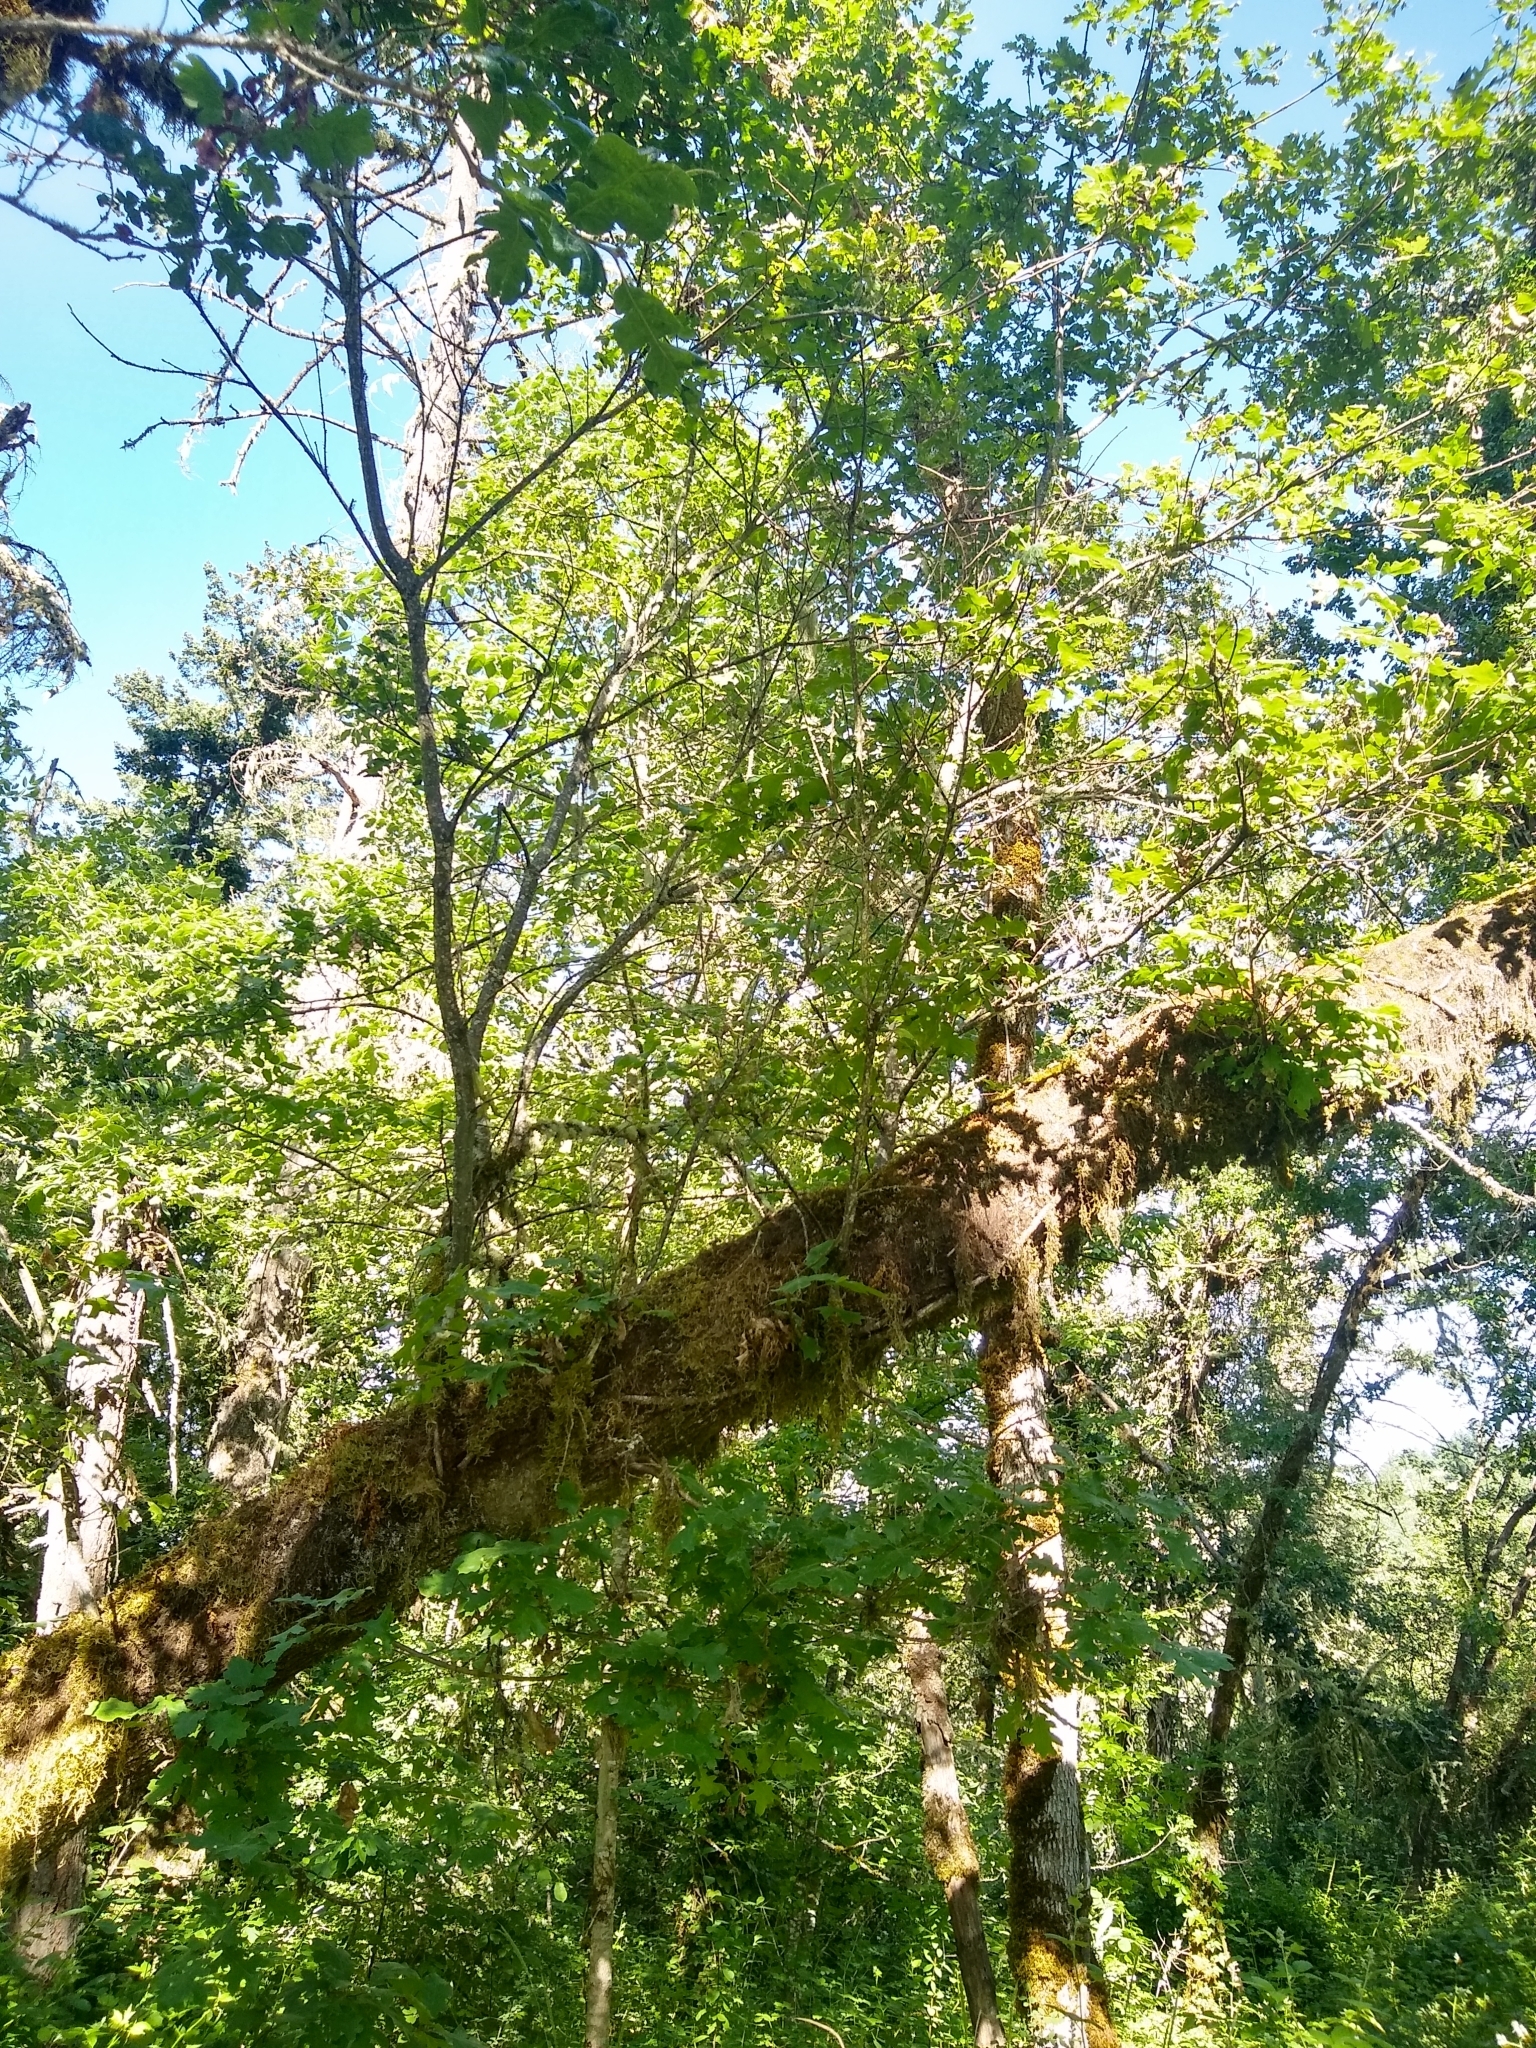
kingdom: Plantae
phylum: Tracheophyta
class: Magnoliopsida
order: Fagales
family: Fagaceae
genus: Quercus
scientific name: Quercus kelloggii
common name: California black oak
